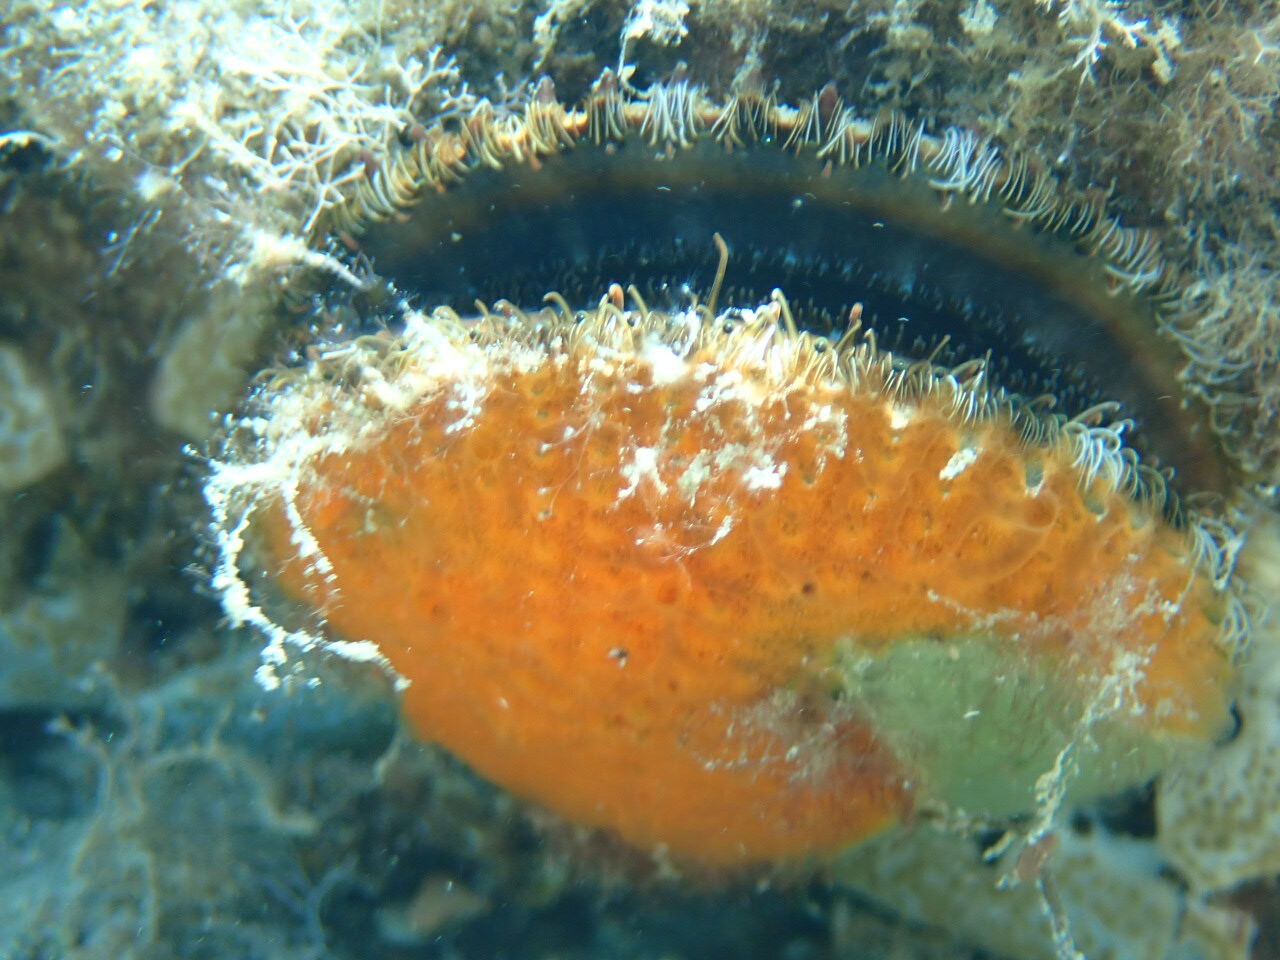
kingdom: Animalia
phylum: Mollusca
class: Bivalvia
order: Pectinida
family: Pectinidae
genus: Mimachlamys
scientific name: Mimachlamys varia
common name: Variegated scallop
